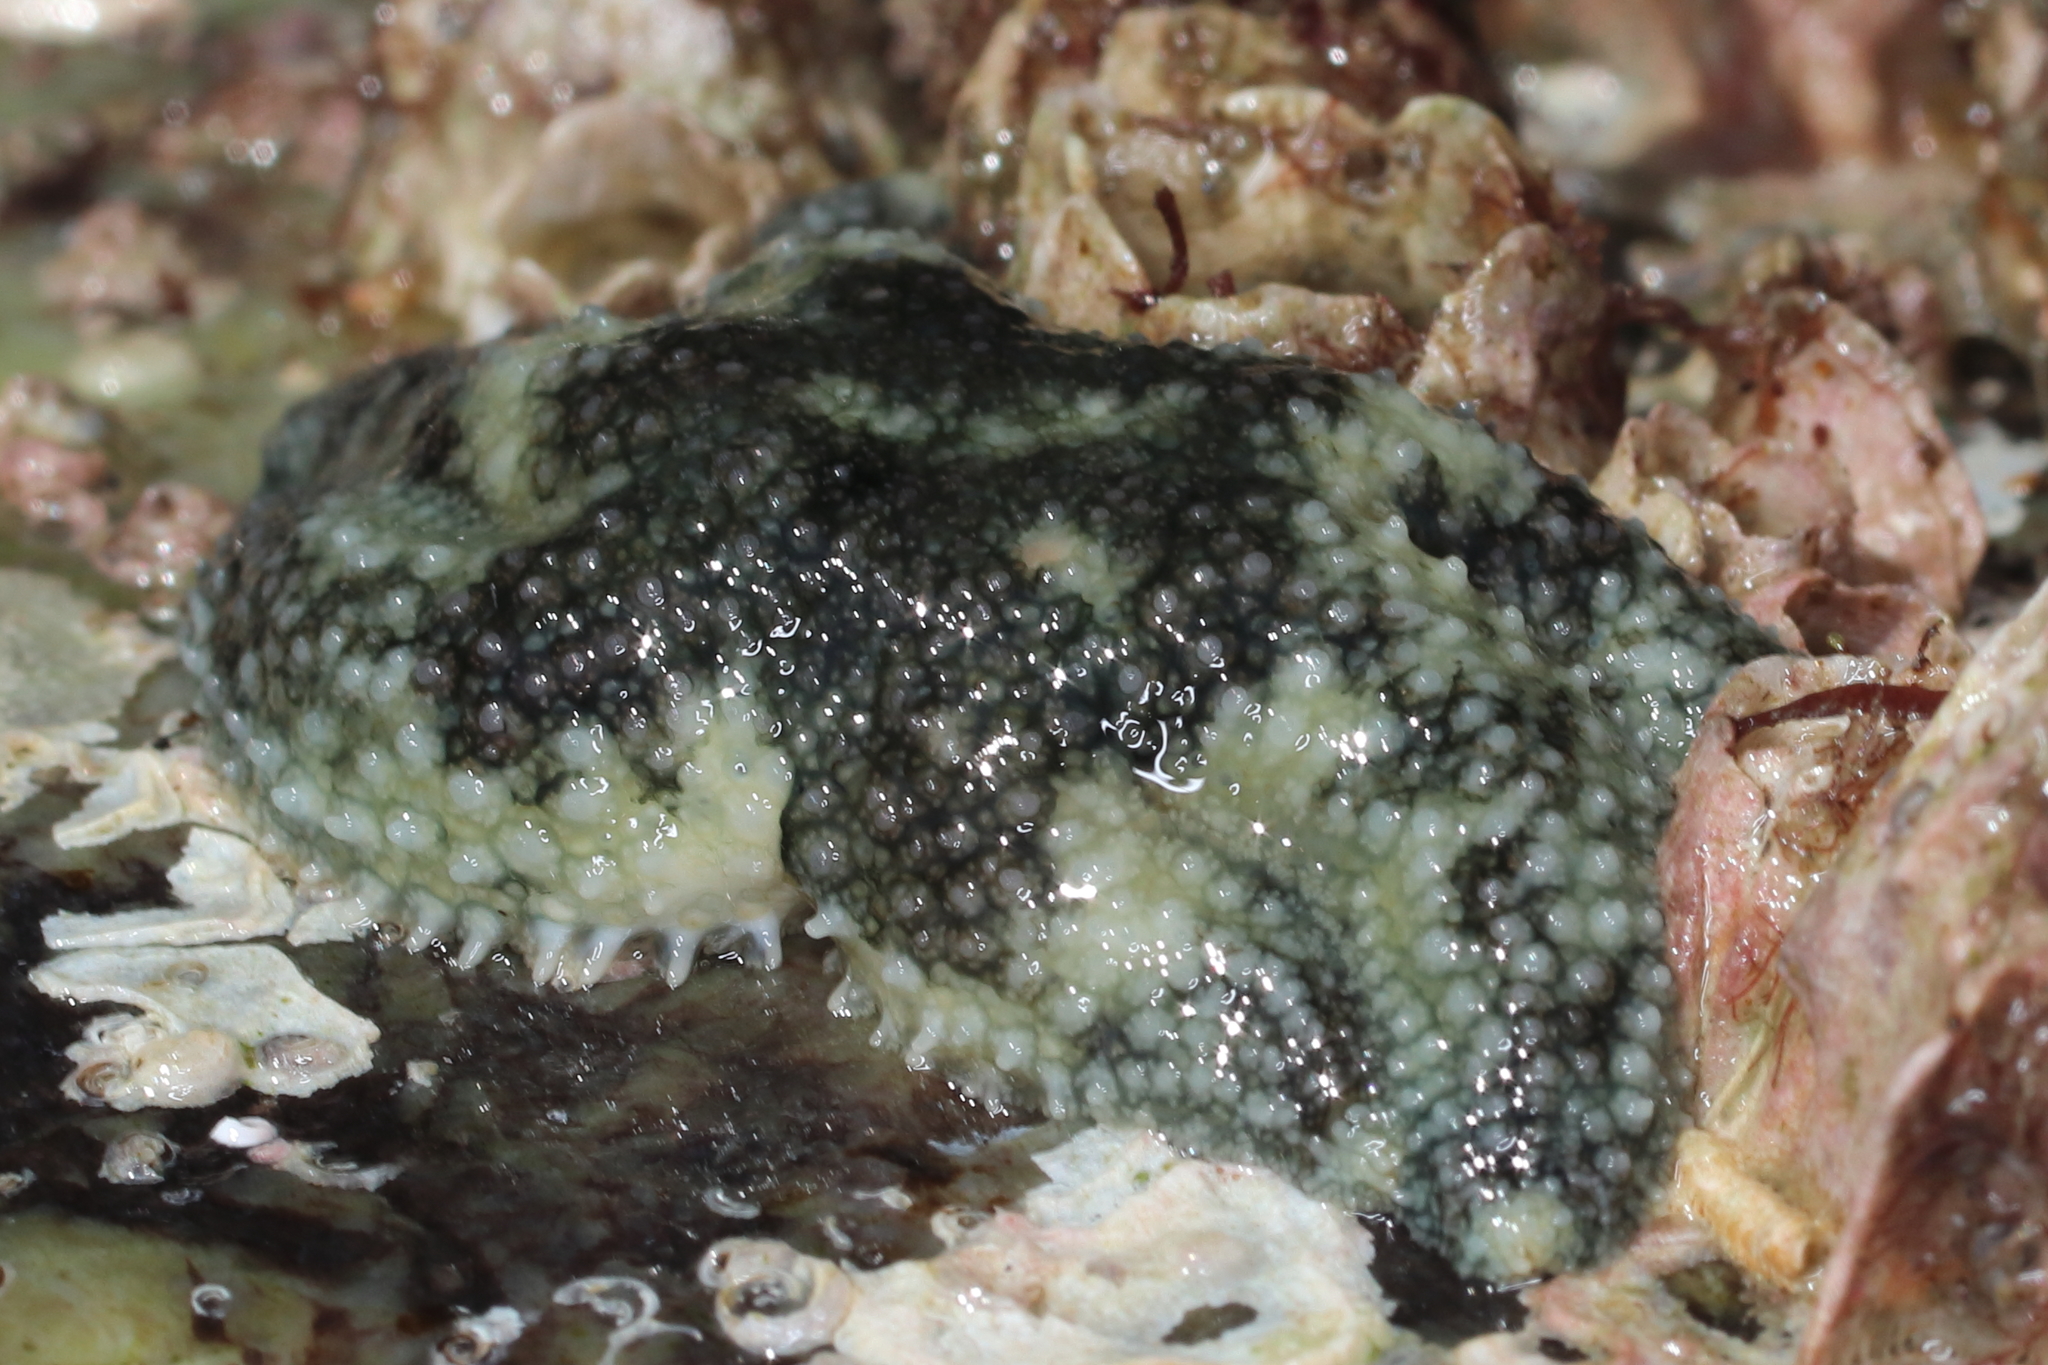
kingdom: Animalia
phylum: Echinodermata
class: Asteroidea
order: Forcipulatida
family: Asteriidae
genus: Leptasterias
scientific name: Leptasterias hexactis
